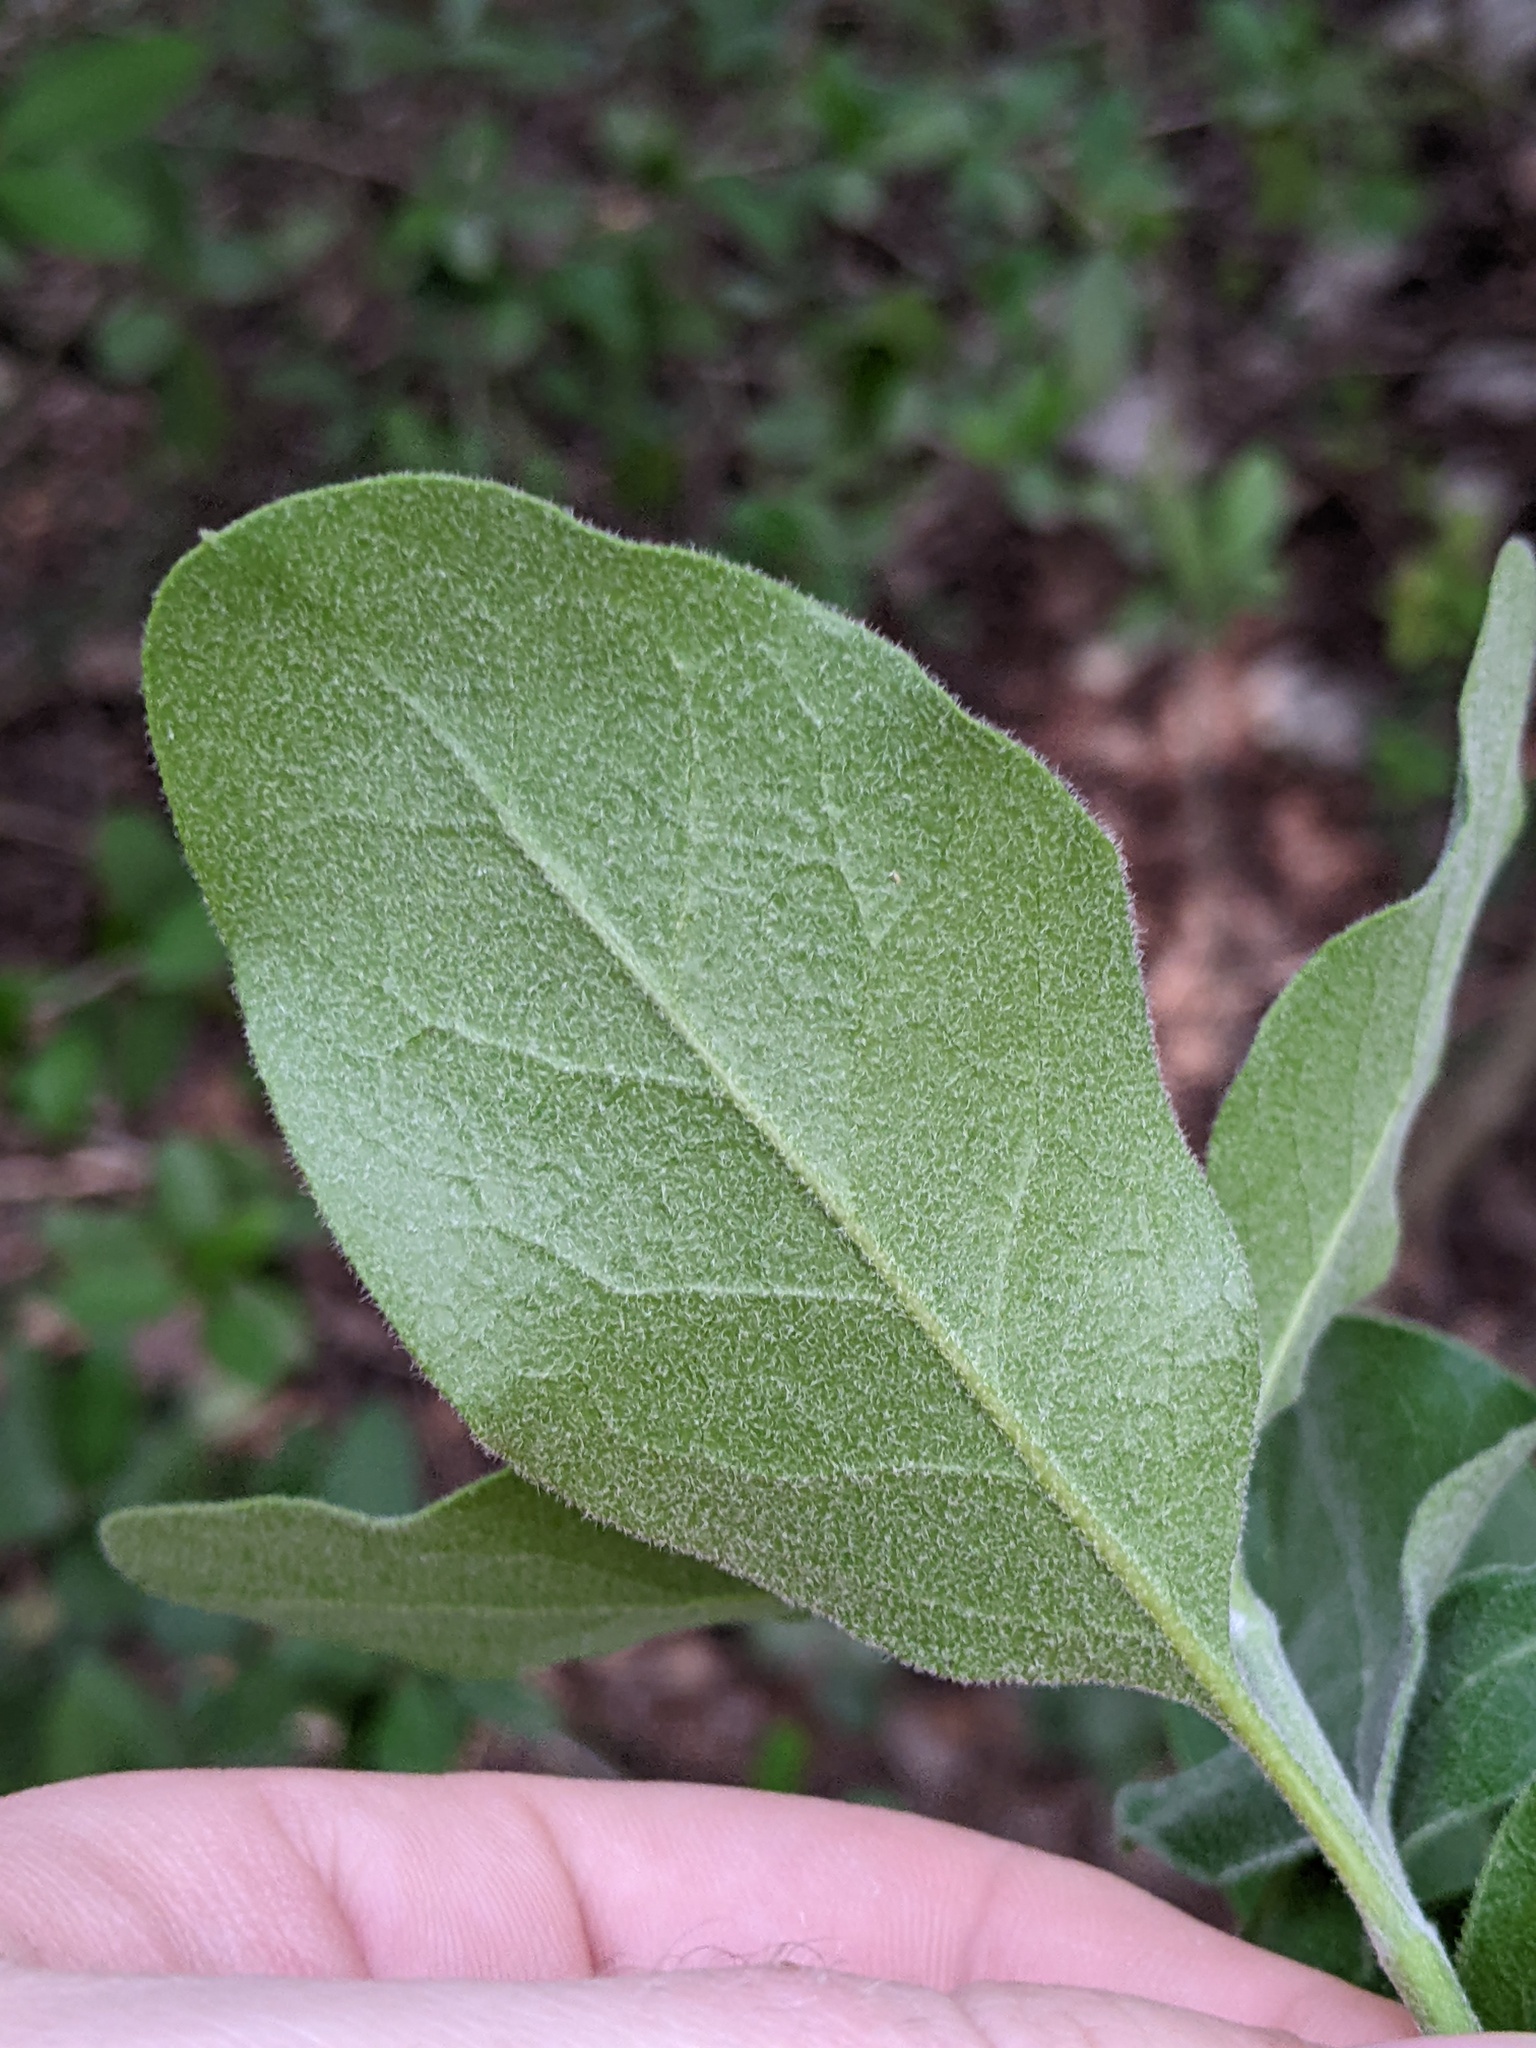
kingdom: Plantae
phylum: Tracheophyta
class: Magnoliopsida
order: Garryales
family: Garryaceae
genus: Garrya
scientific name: Garrya lindheimeri
